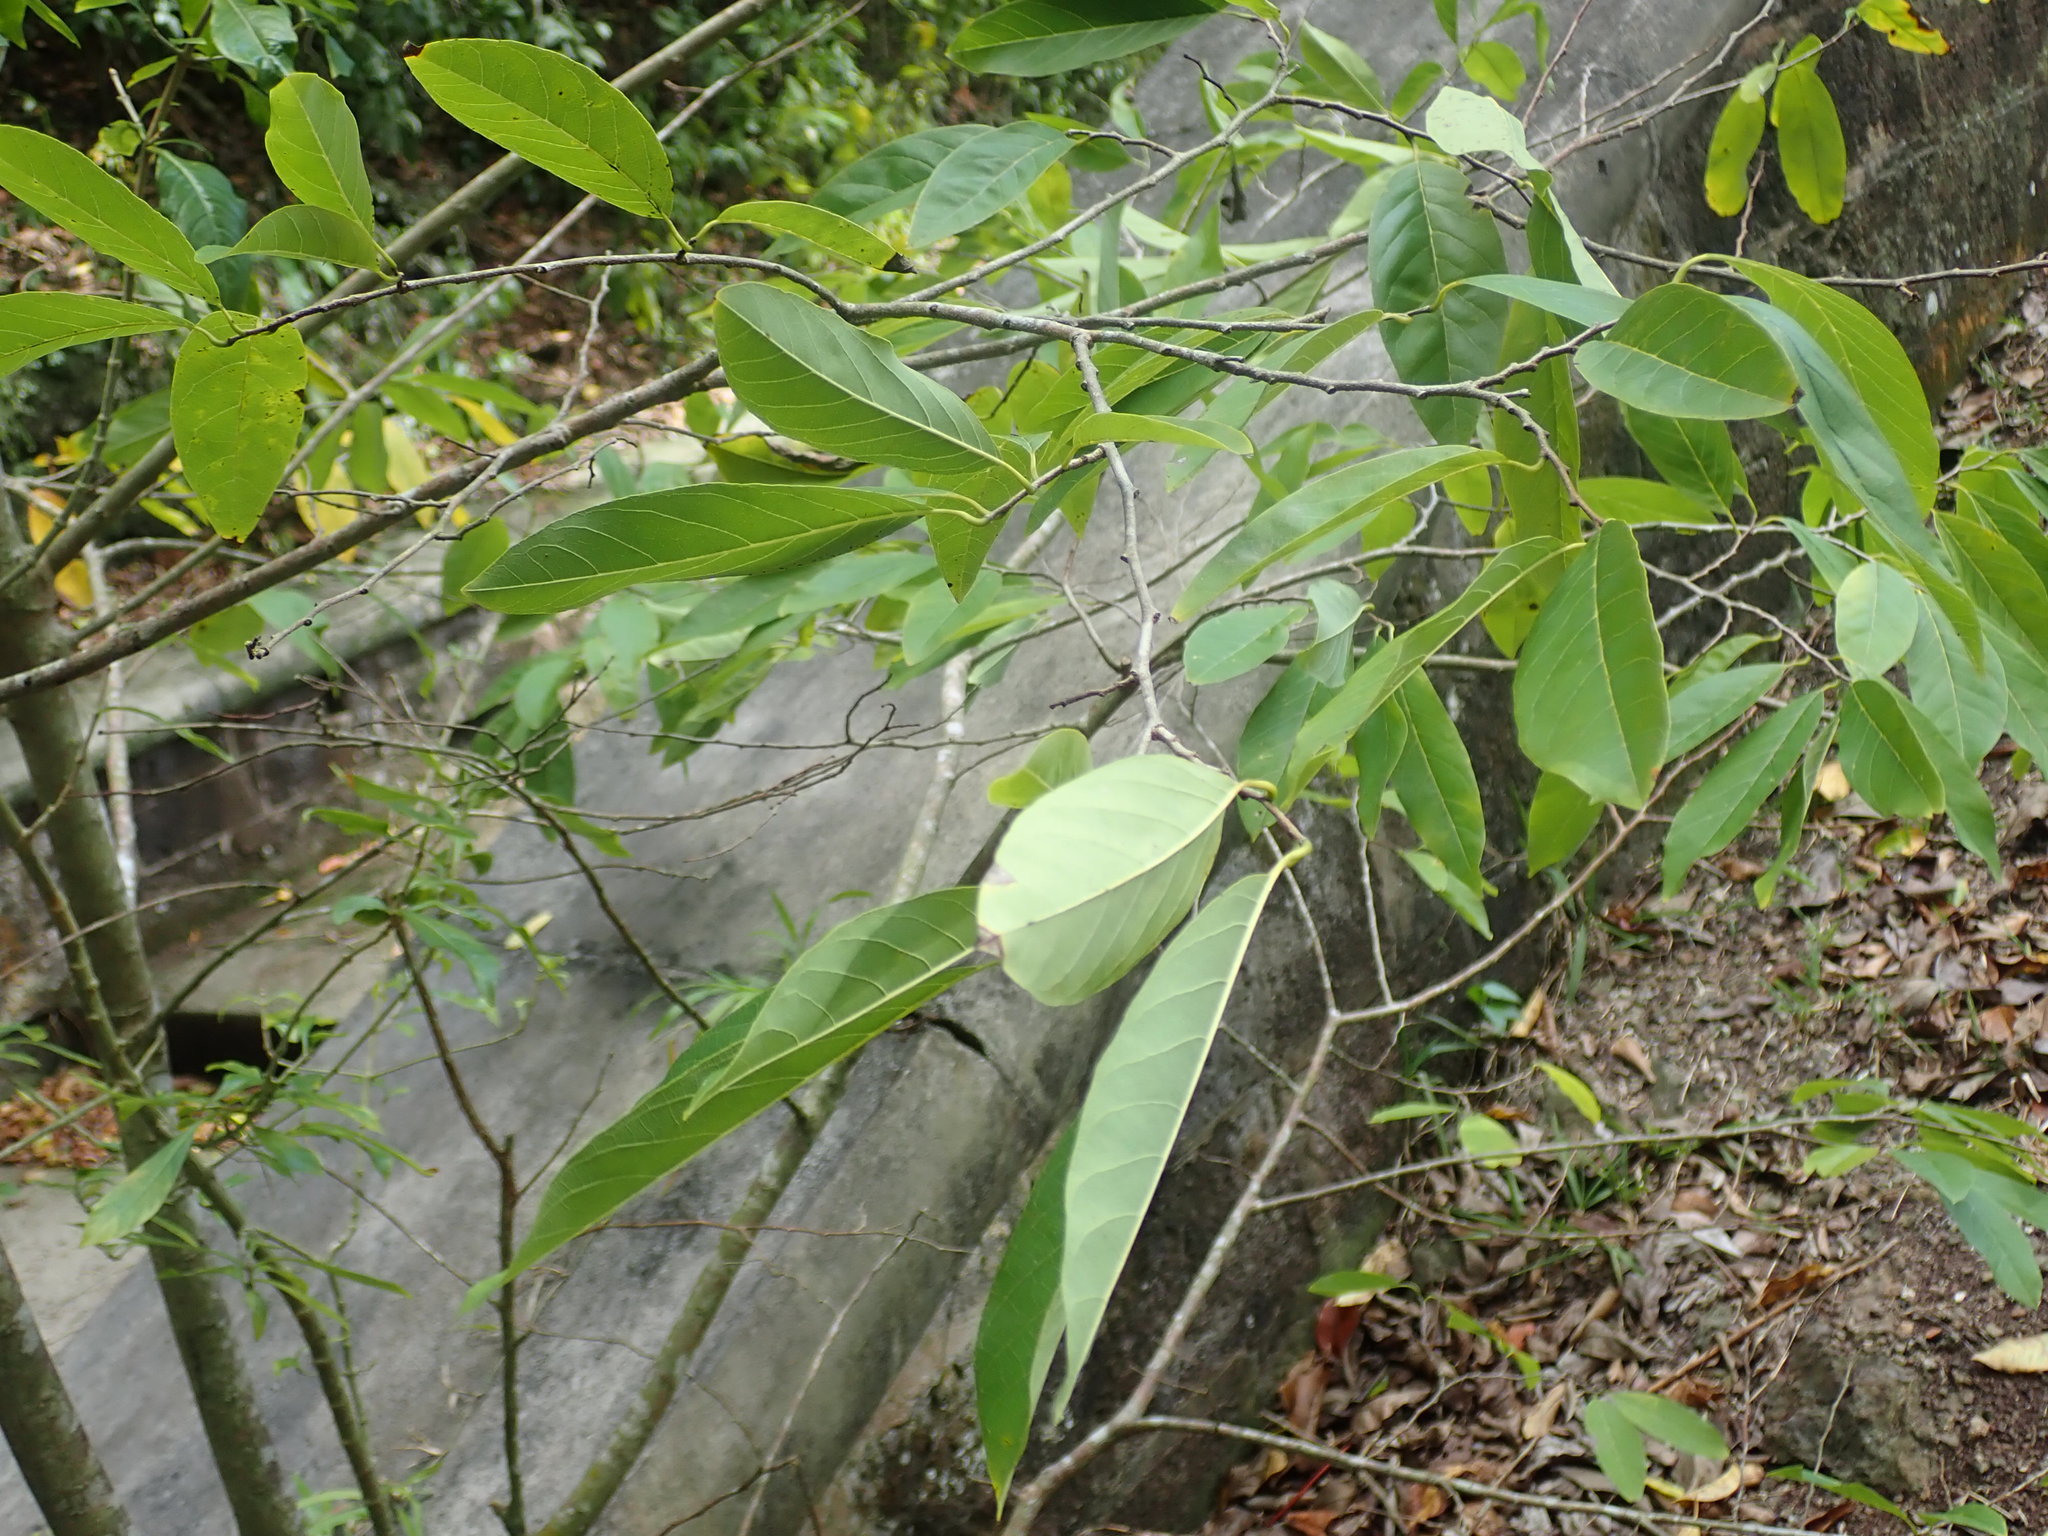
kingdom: Plantae
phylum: Tracheophyta
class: Magnoliopsida
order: Magnoliales
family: Annonaceae
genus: Annona
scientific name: Annona squamosa
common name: Custard-apple
